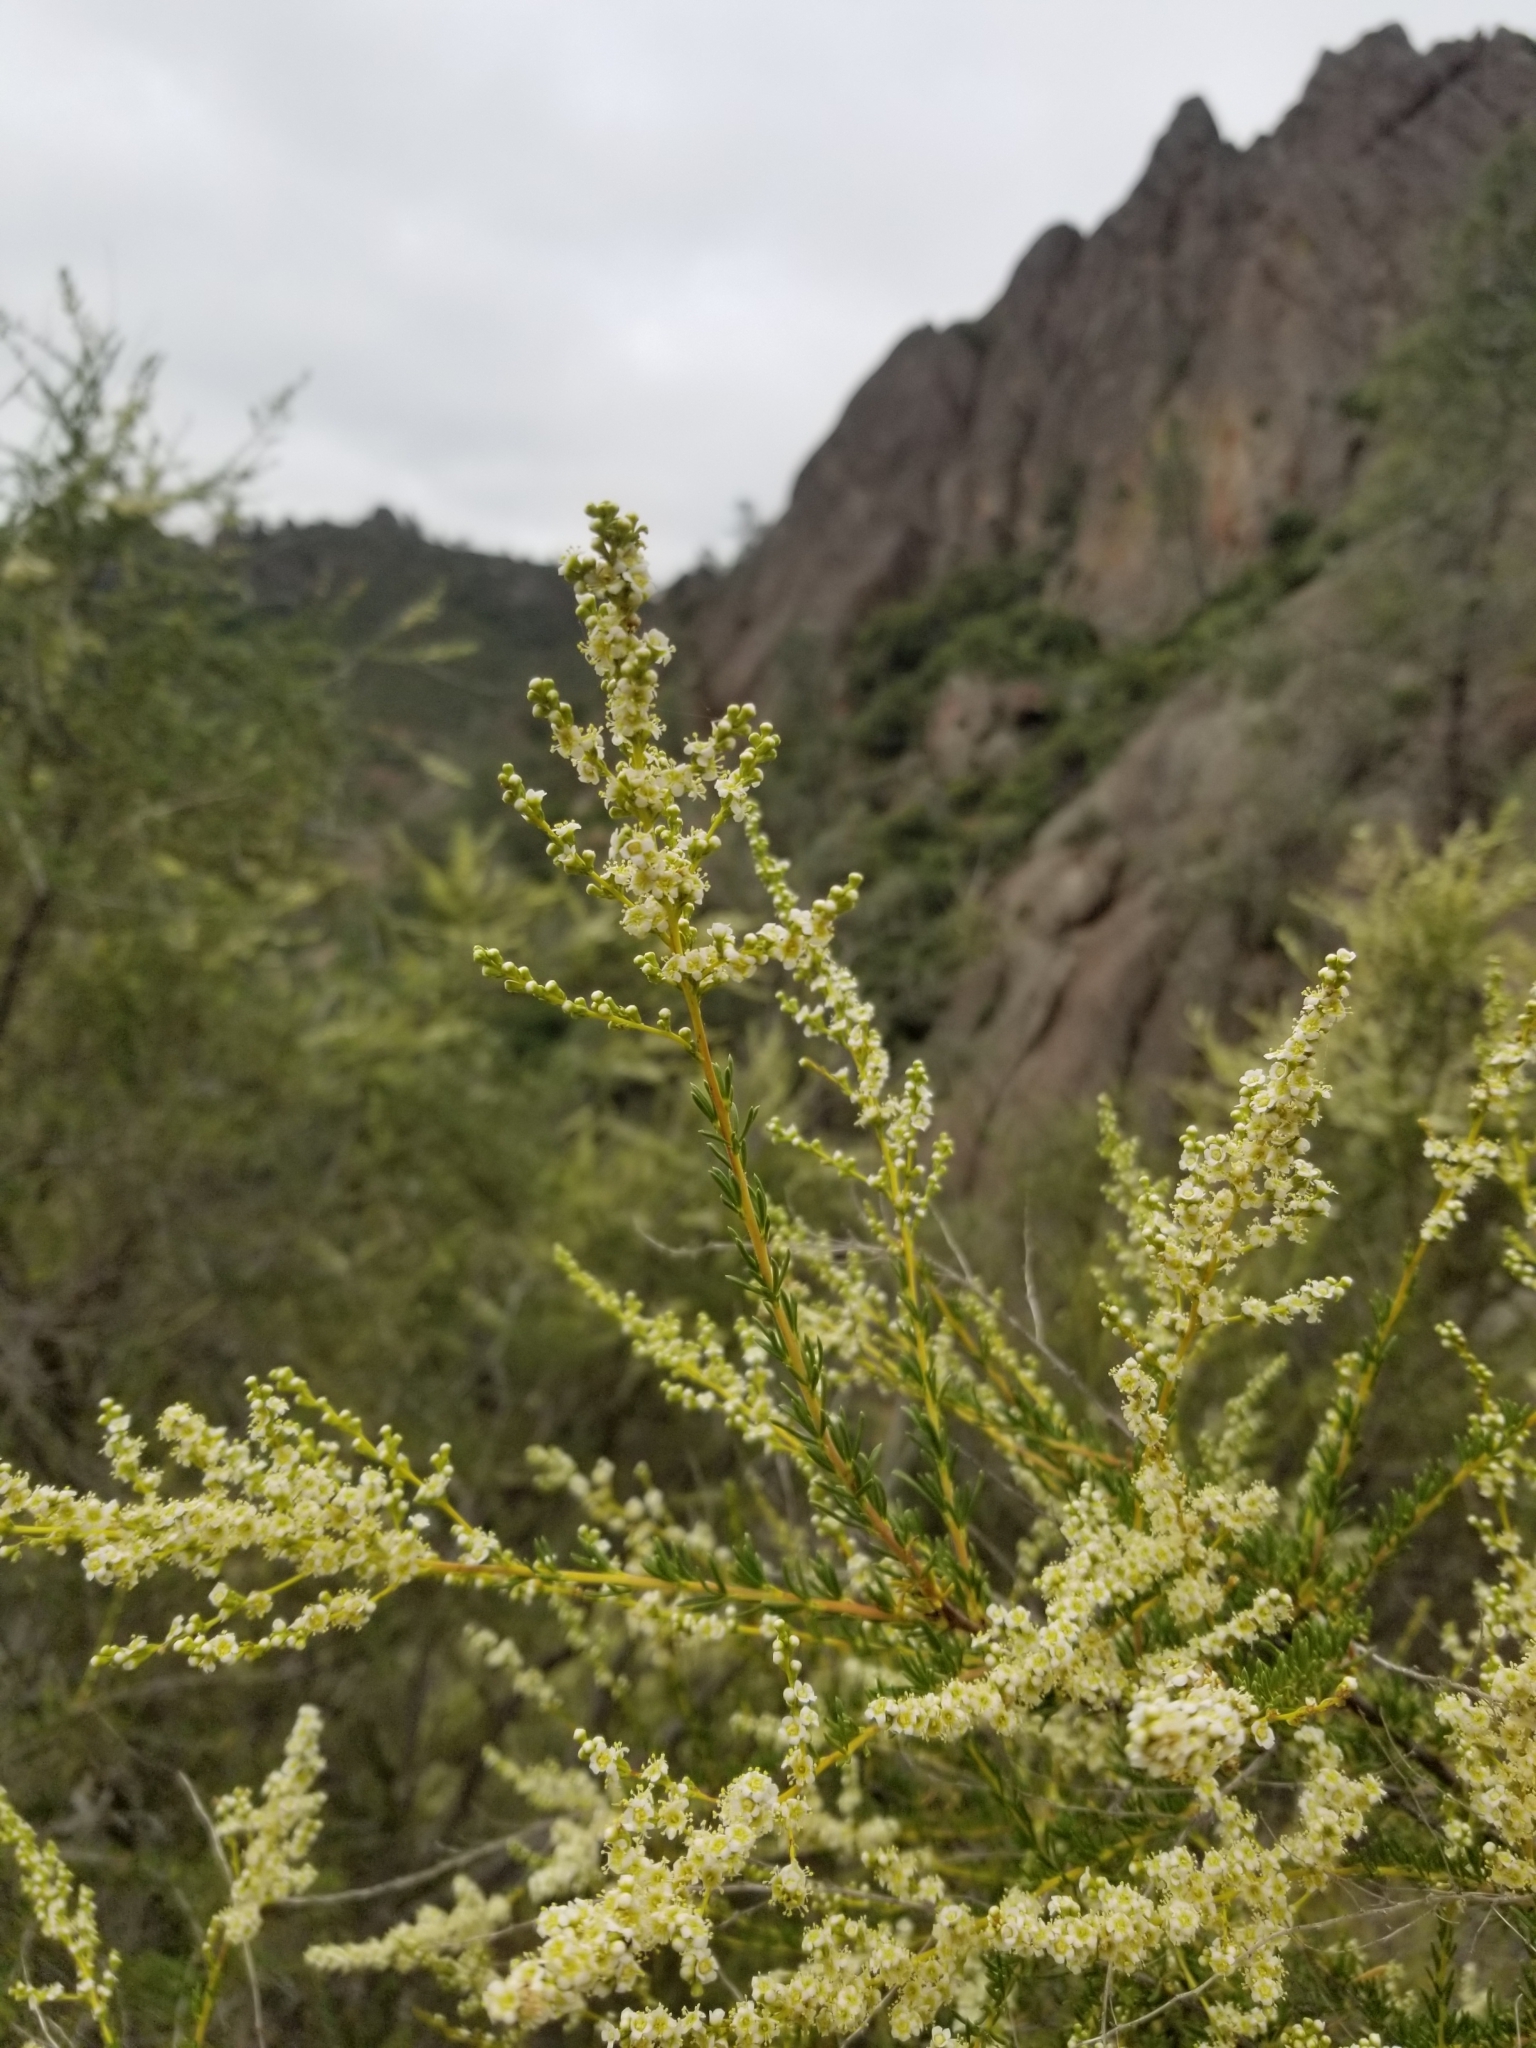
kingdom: Plantae
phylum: Tracheophyta
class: Magnoliopsida
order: Rosales
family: Rosaceae
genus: Adenostoma
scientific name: Adenostoma fasciculatum
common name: Chamise
